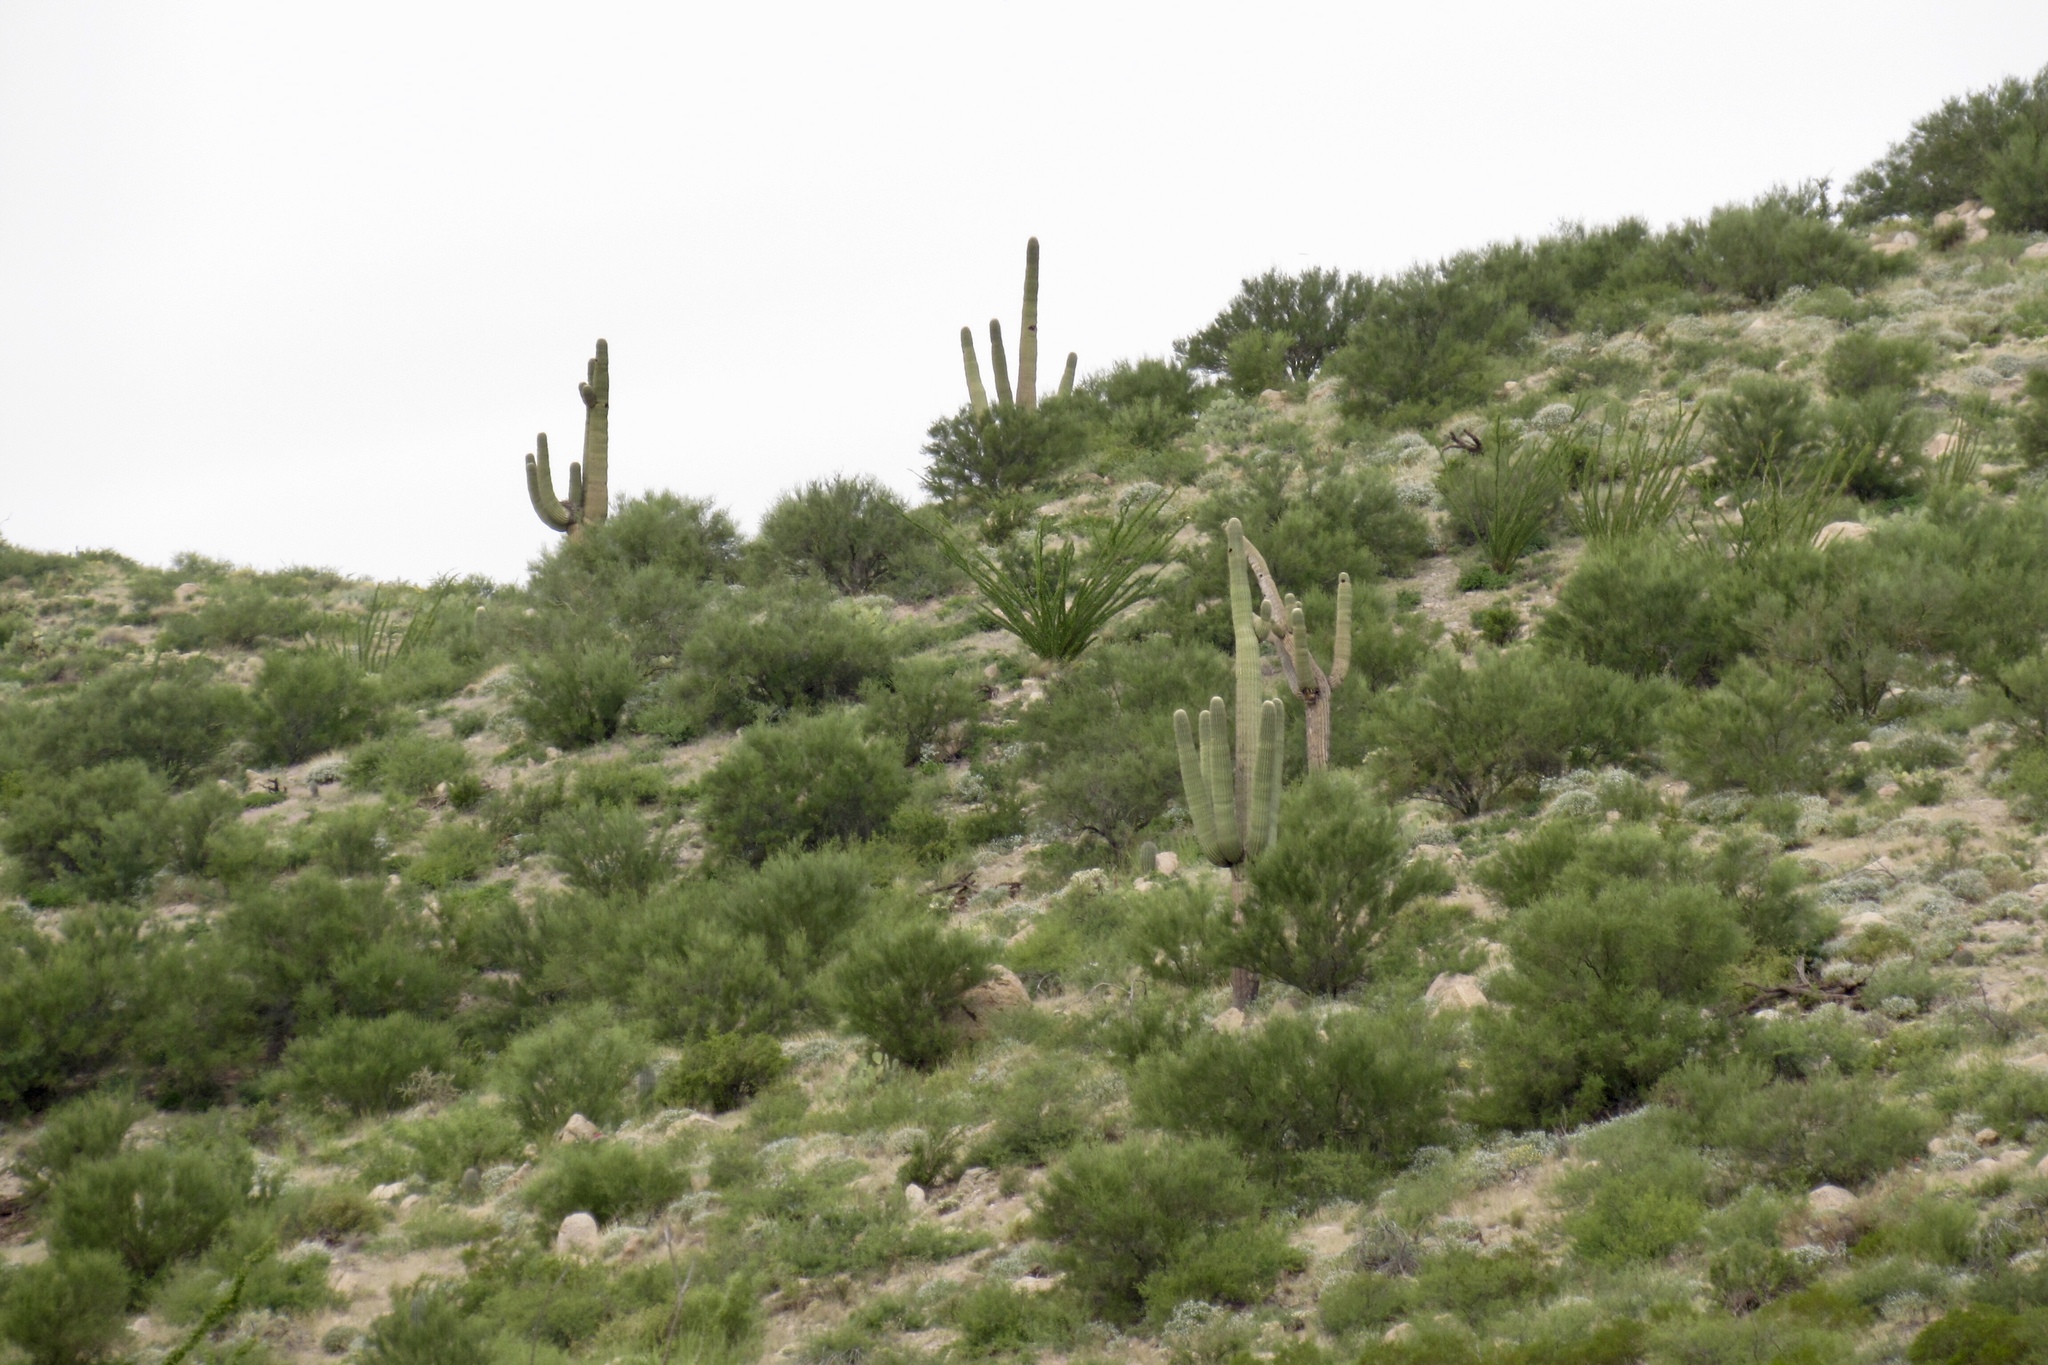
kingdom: Plantae
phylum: Tracheophyta
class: Magnoliopsida
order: Caryophyllales
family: Cactaceae
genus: Carnegiea
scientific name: Carnegiea gigantea
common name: Saguaro
